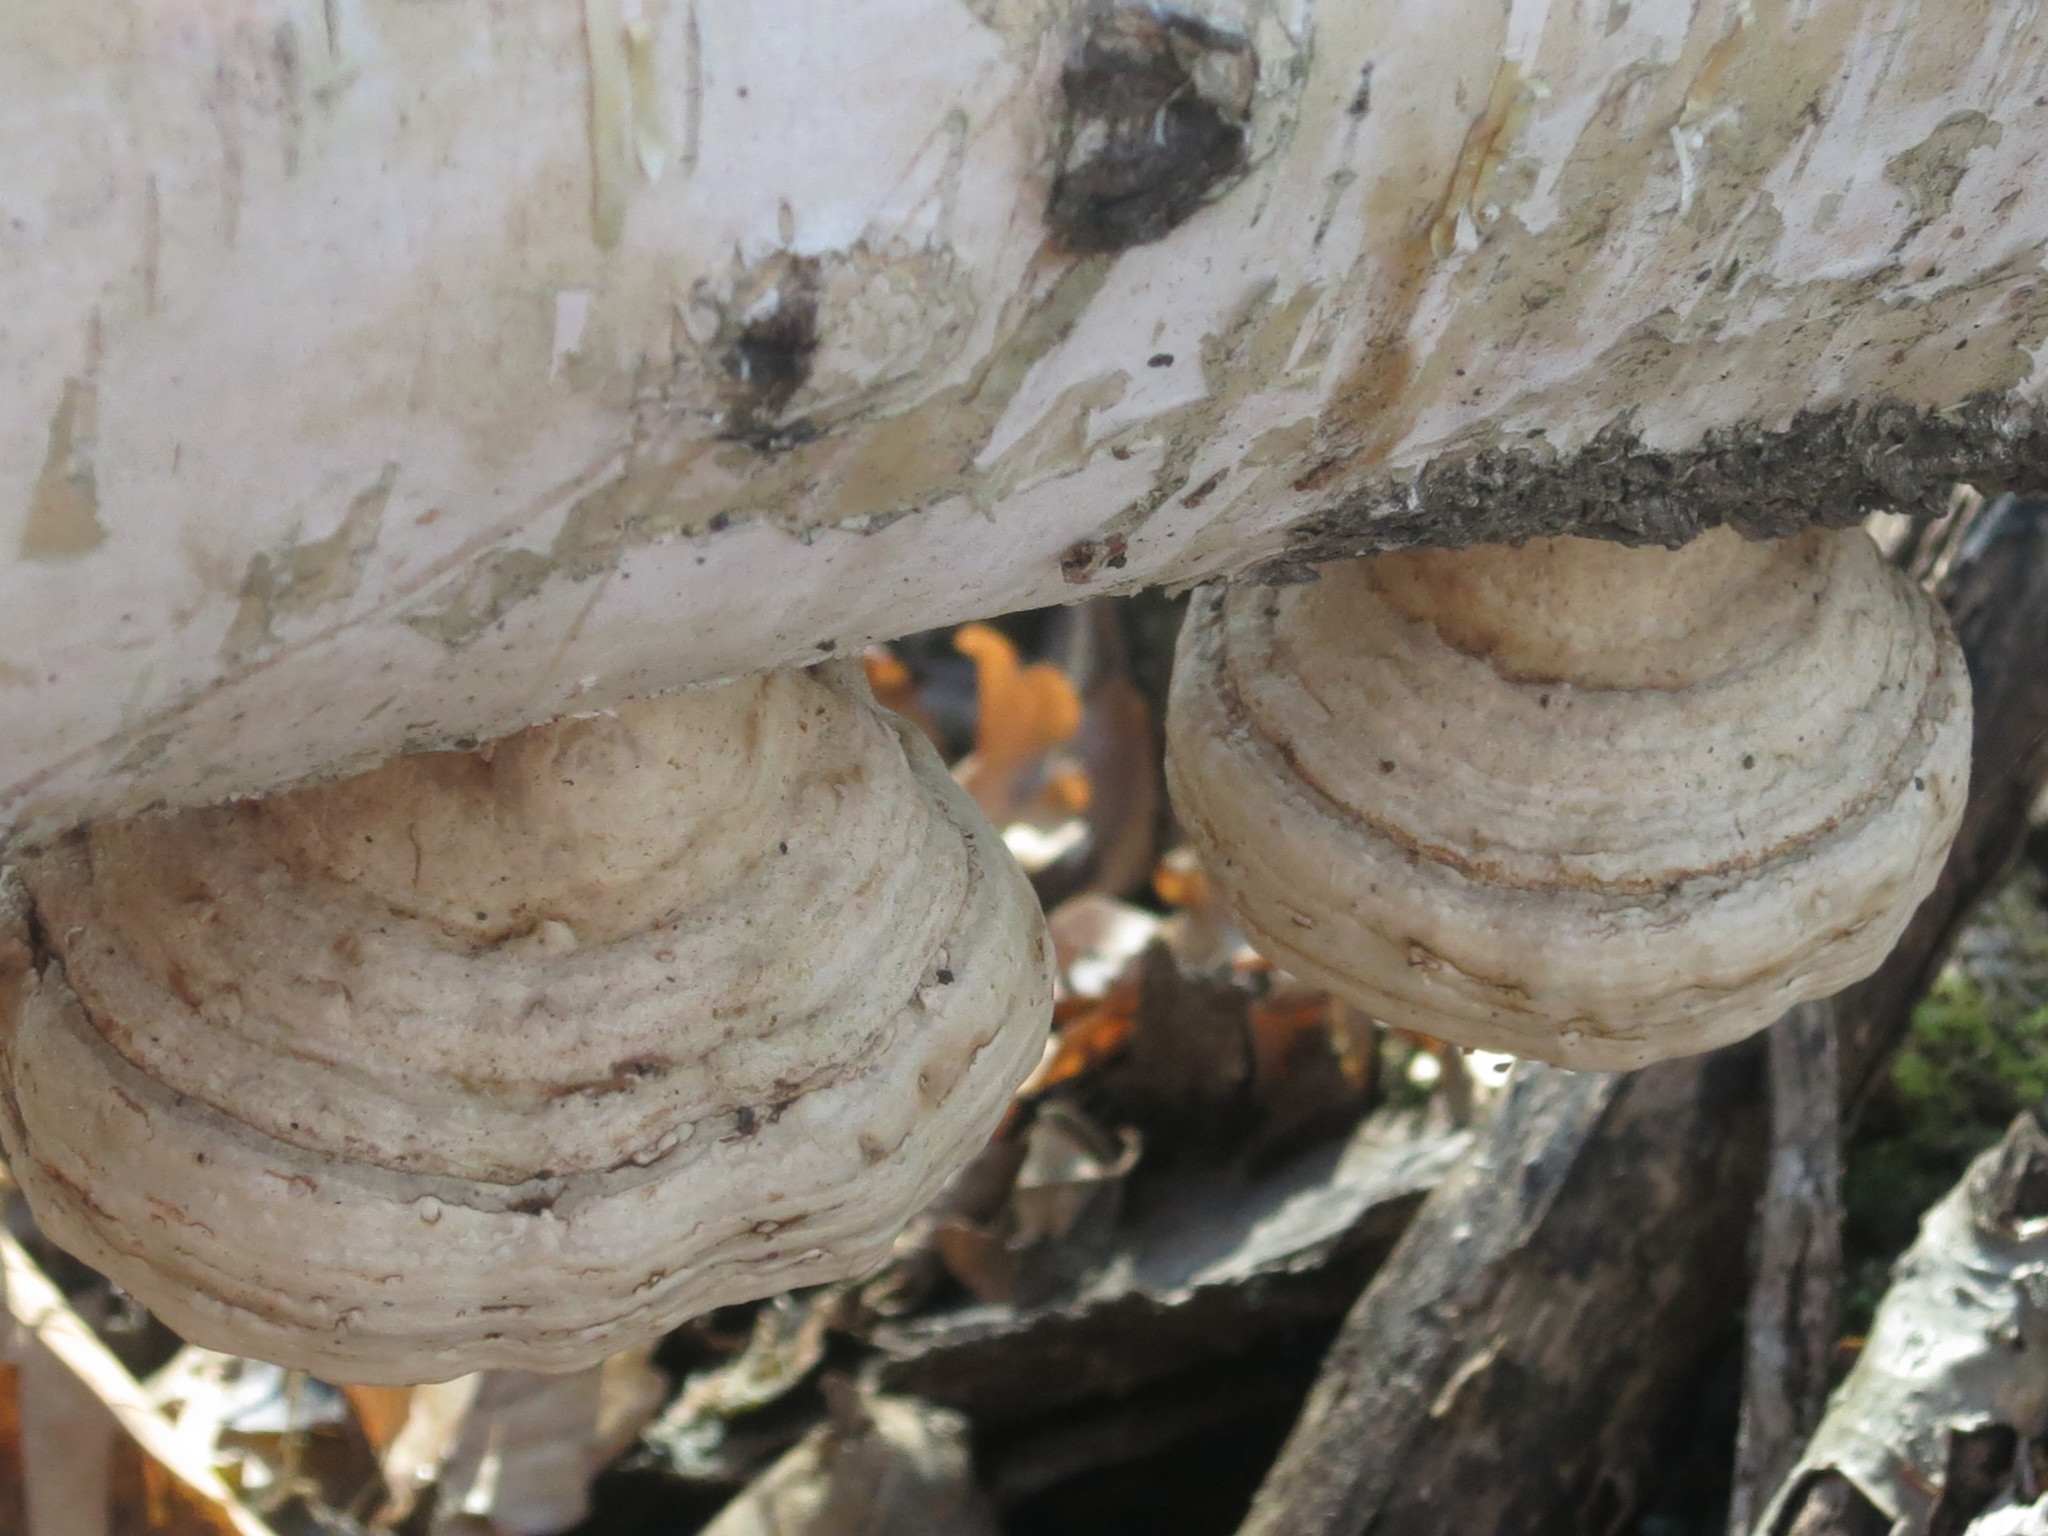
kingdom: Fungi
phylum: Basidiomycota
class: Agaricomycetes
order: Polyporales
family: Polyporaceae
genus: Fomes
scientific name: Fomes fomentarius
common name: Hoof fungus
